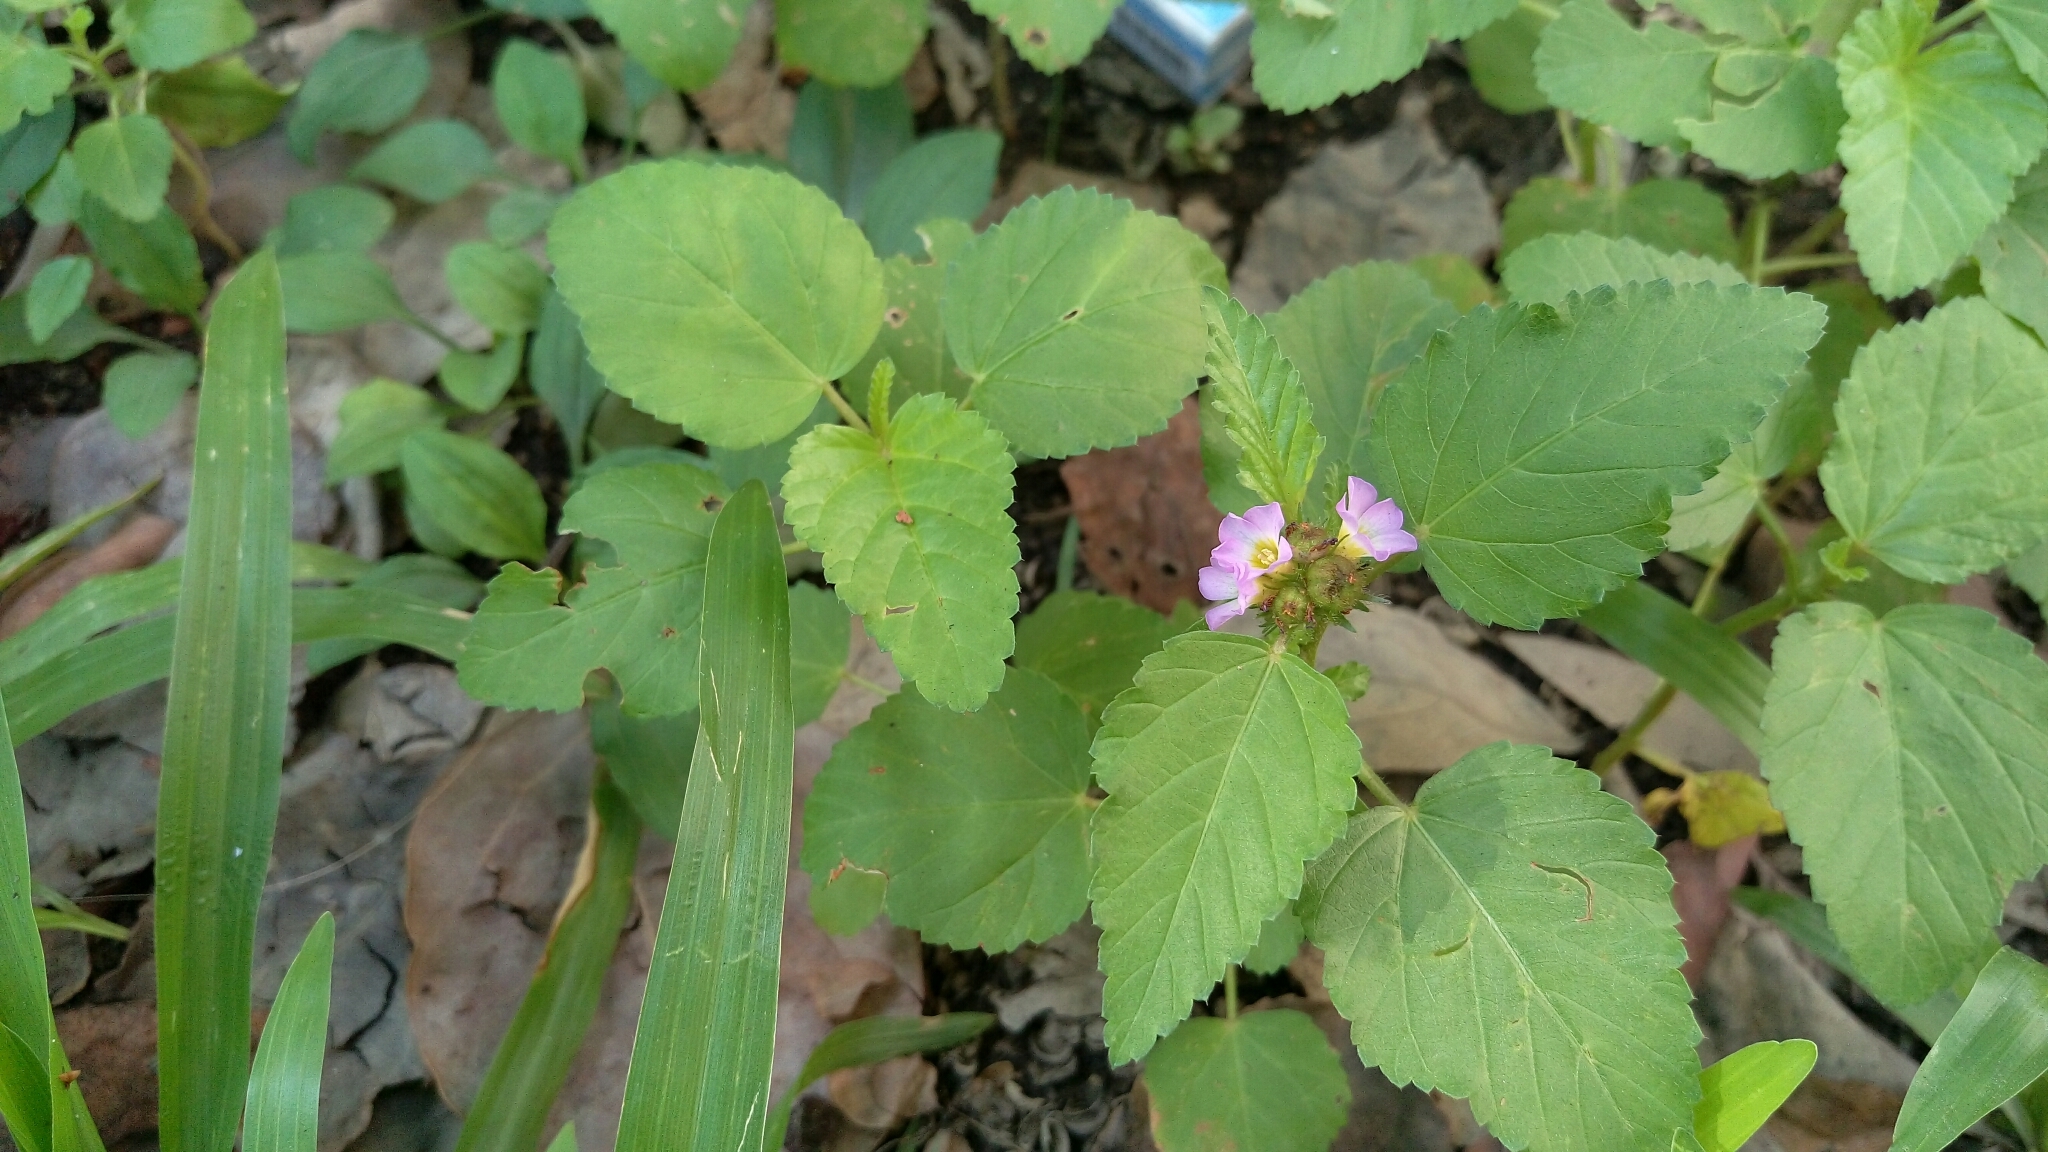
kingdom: Plantae
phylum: Tracheophyta
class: Magnoliopsida
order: Malvales
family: Malvaceae
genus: Melochia
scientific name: Melochia corchorifolia
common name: Chocolateweed
